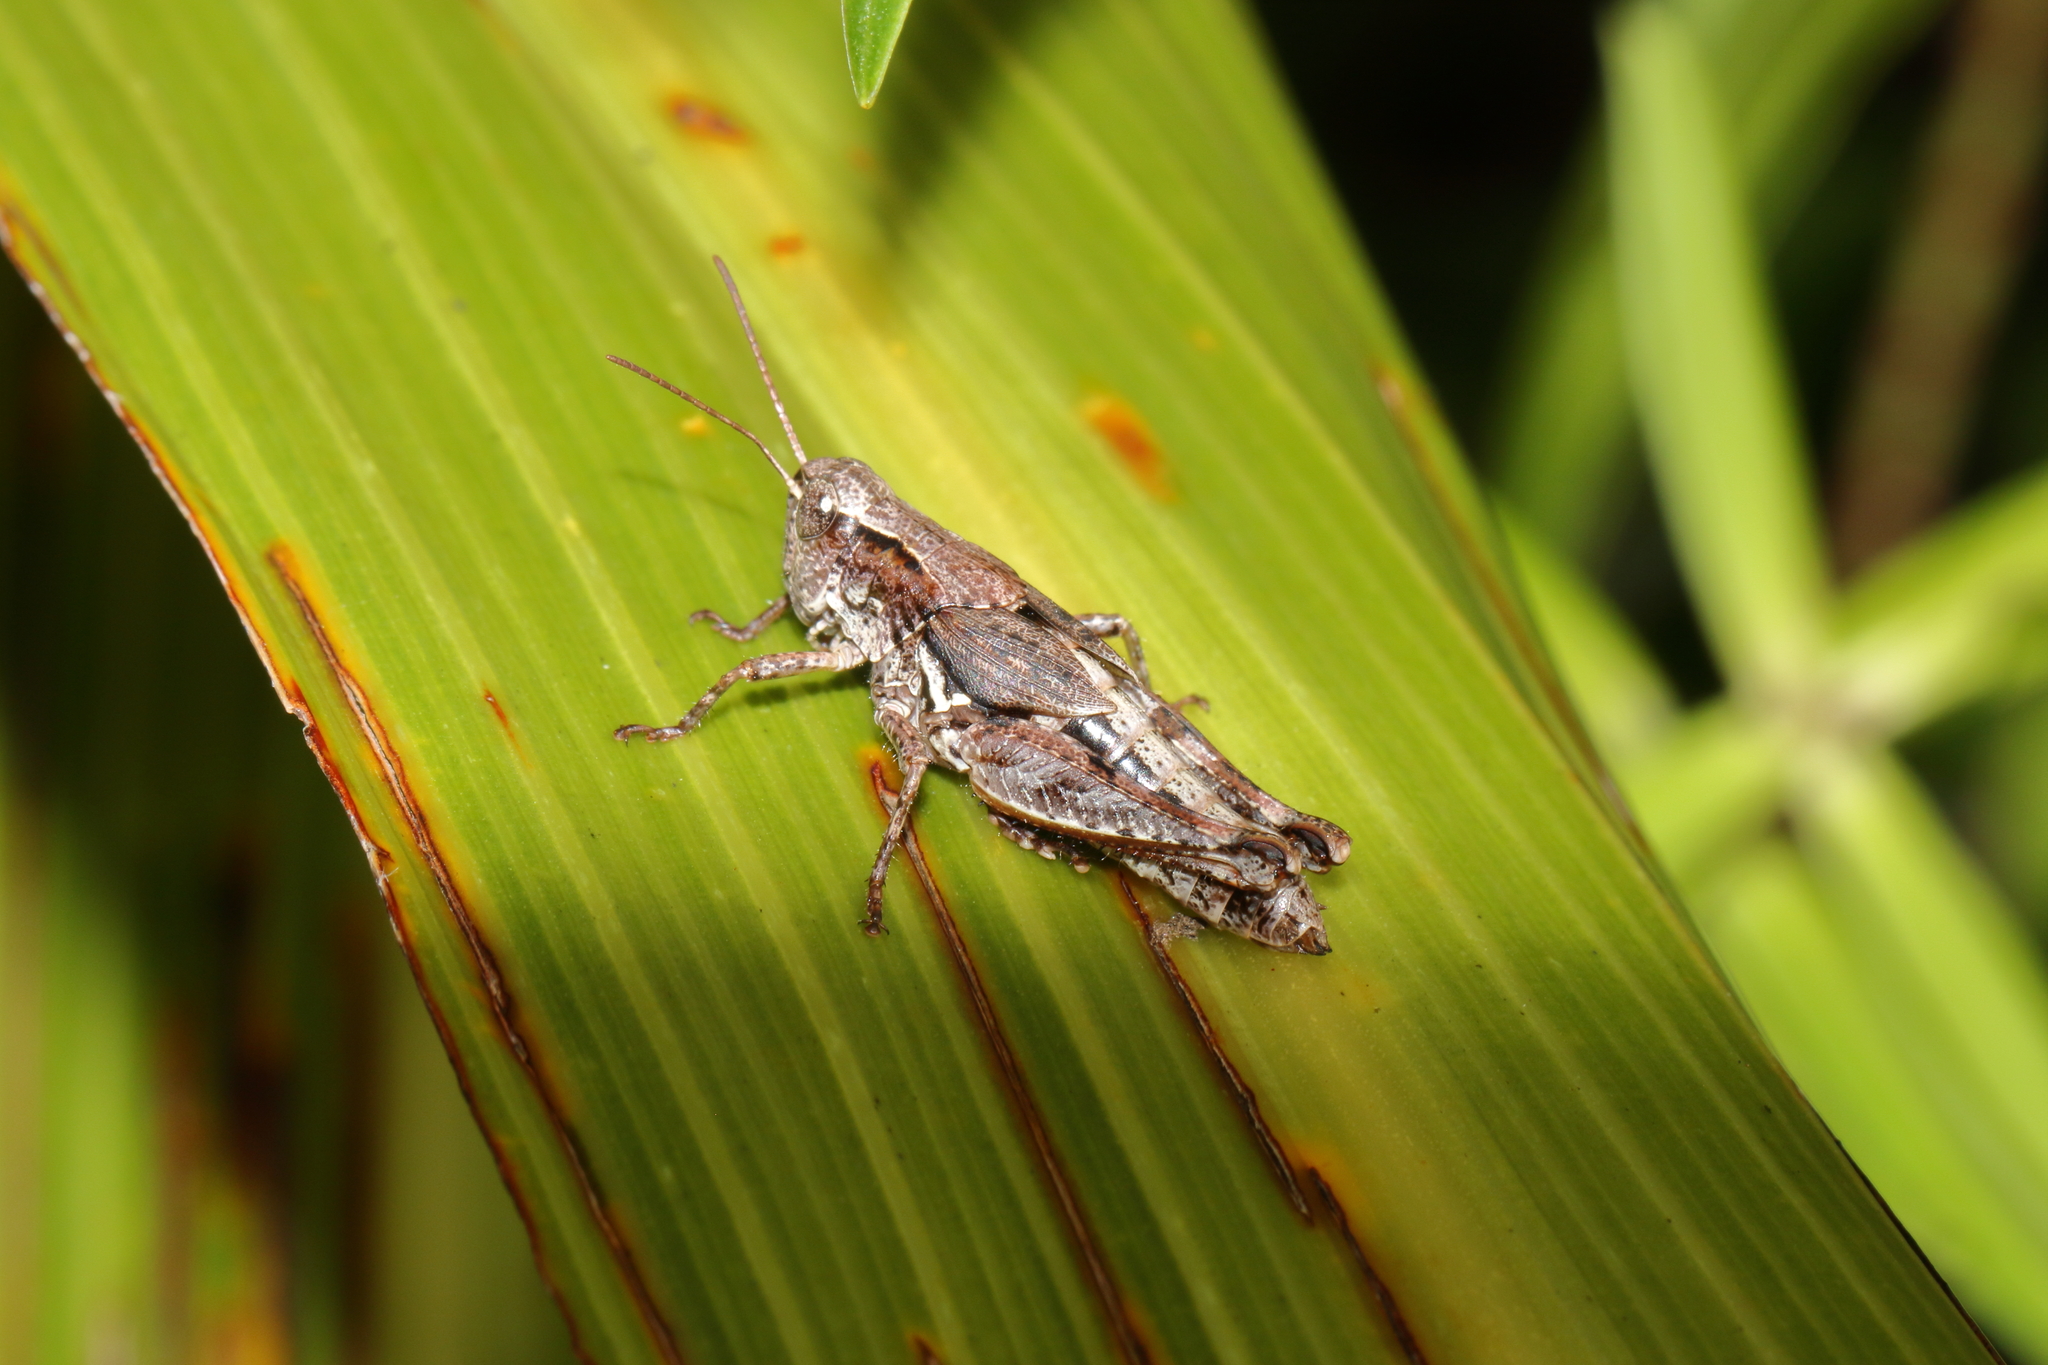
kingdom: Animalia
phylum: Arthropoda
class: Insecta
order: Orthoptera
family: Acrididae
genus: Phaulacridium
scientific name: Phaulacridium marginale
